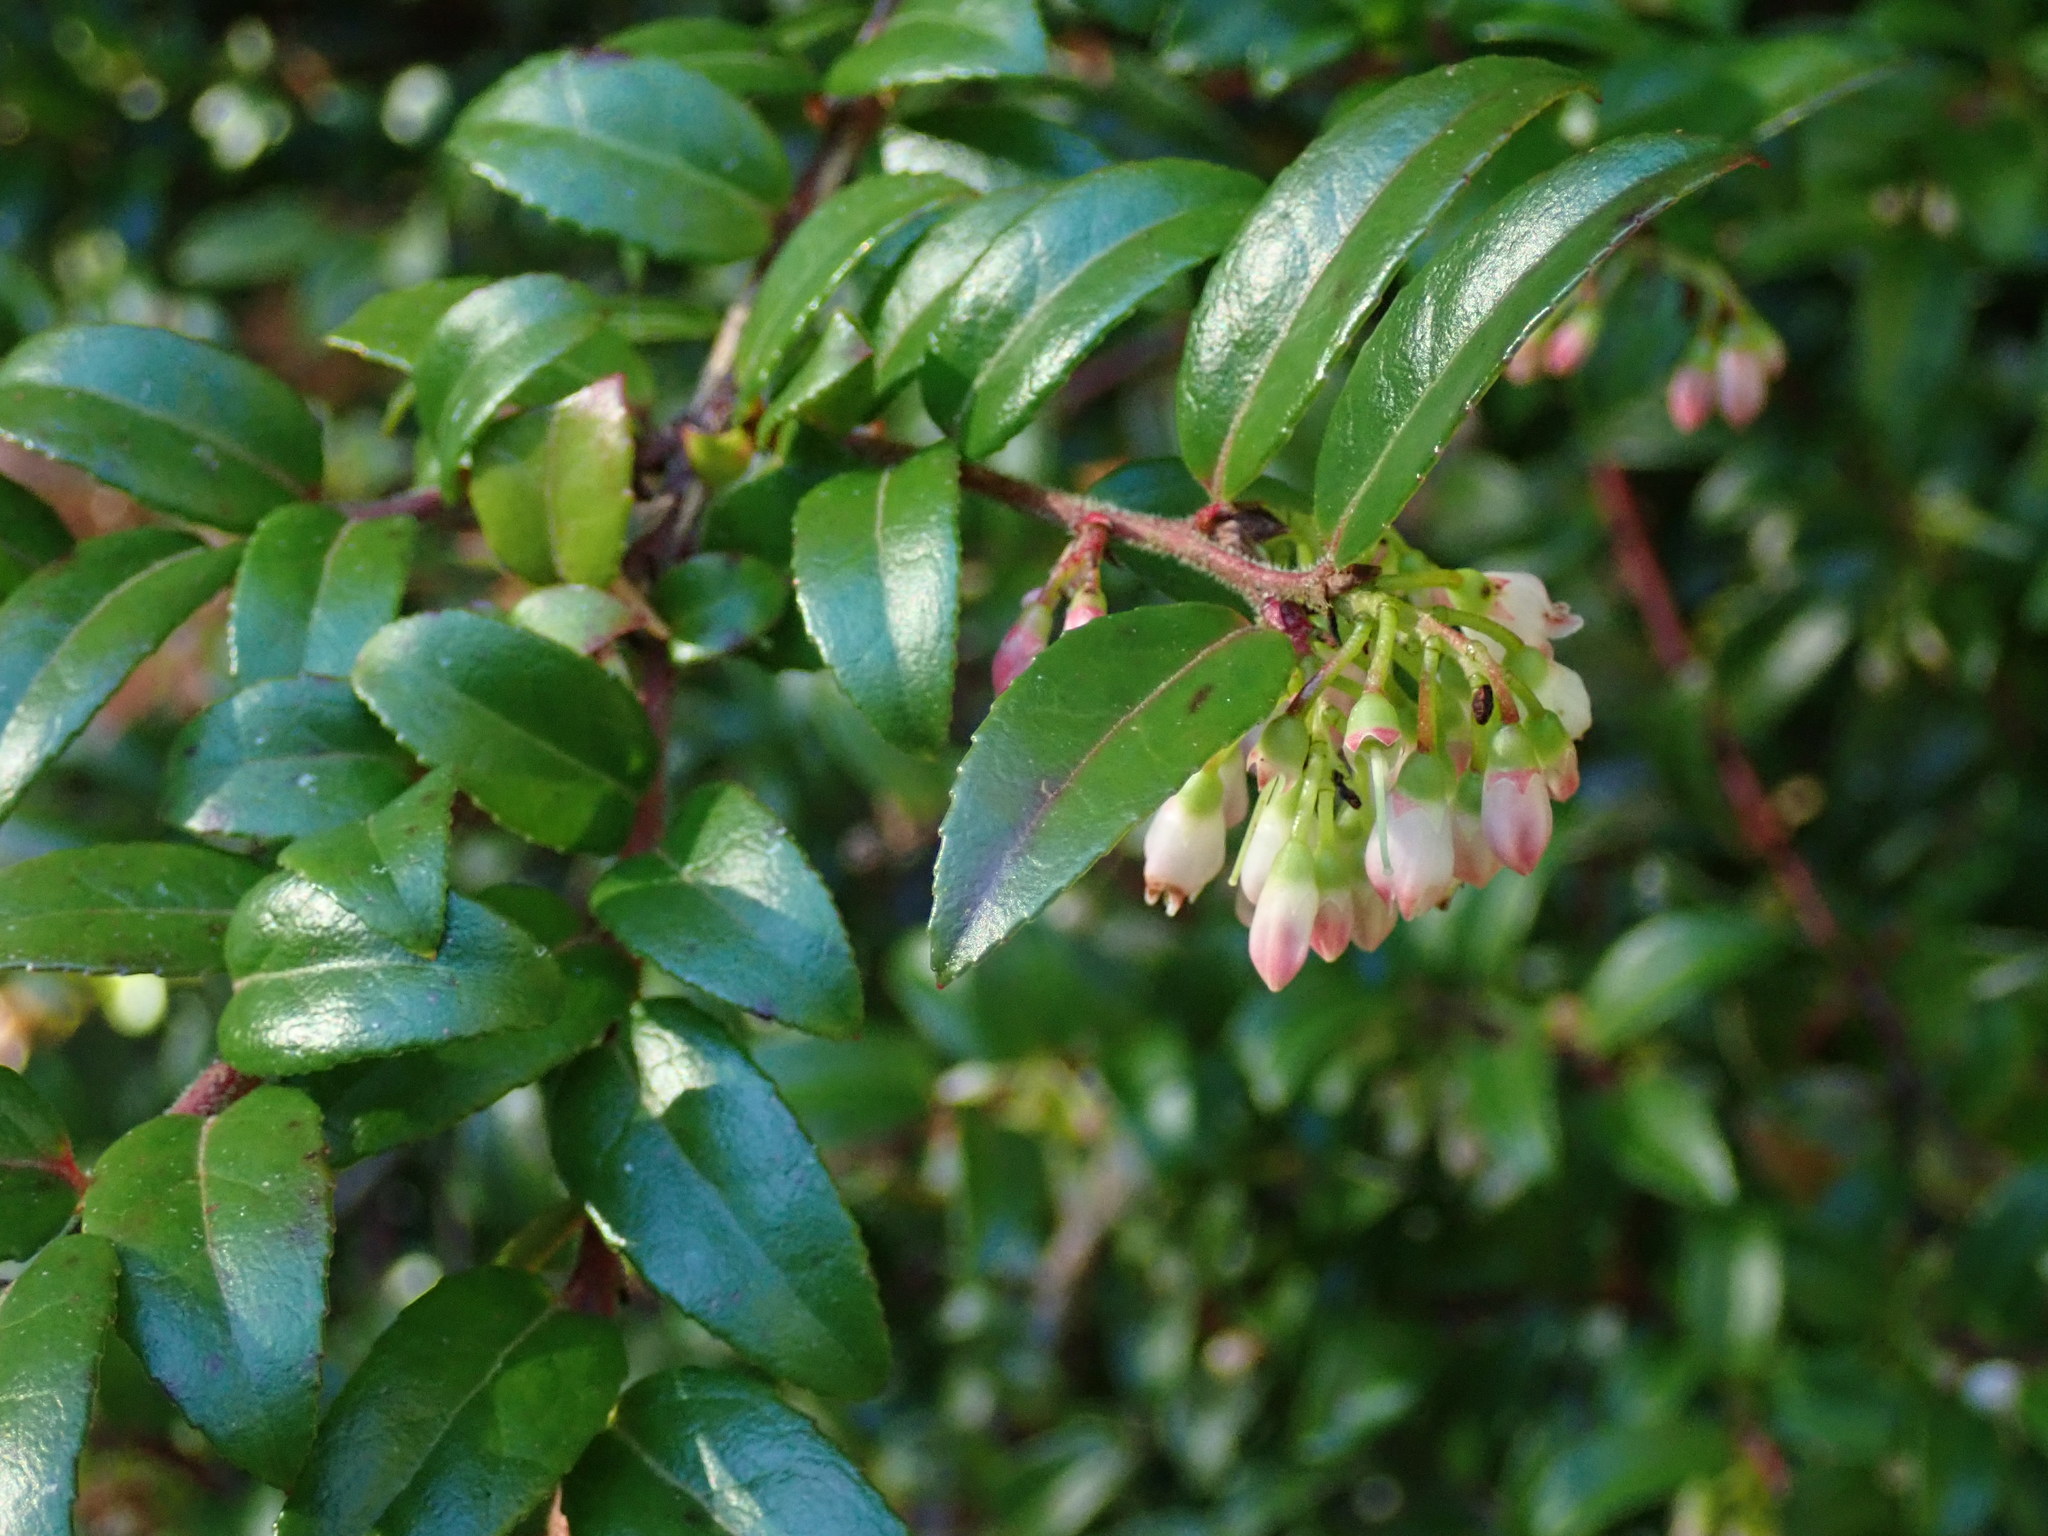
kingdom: Plantae
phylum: Tracheophyta
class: Magnoliopsida
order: Ericales
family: Ericaceae
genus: Vaccinium
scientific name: Vaccinium ovatum
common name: California-huckleberry
